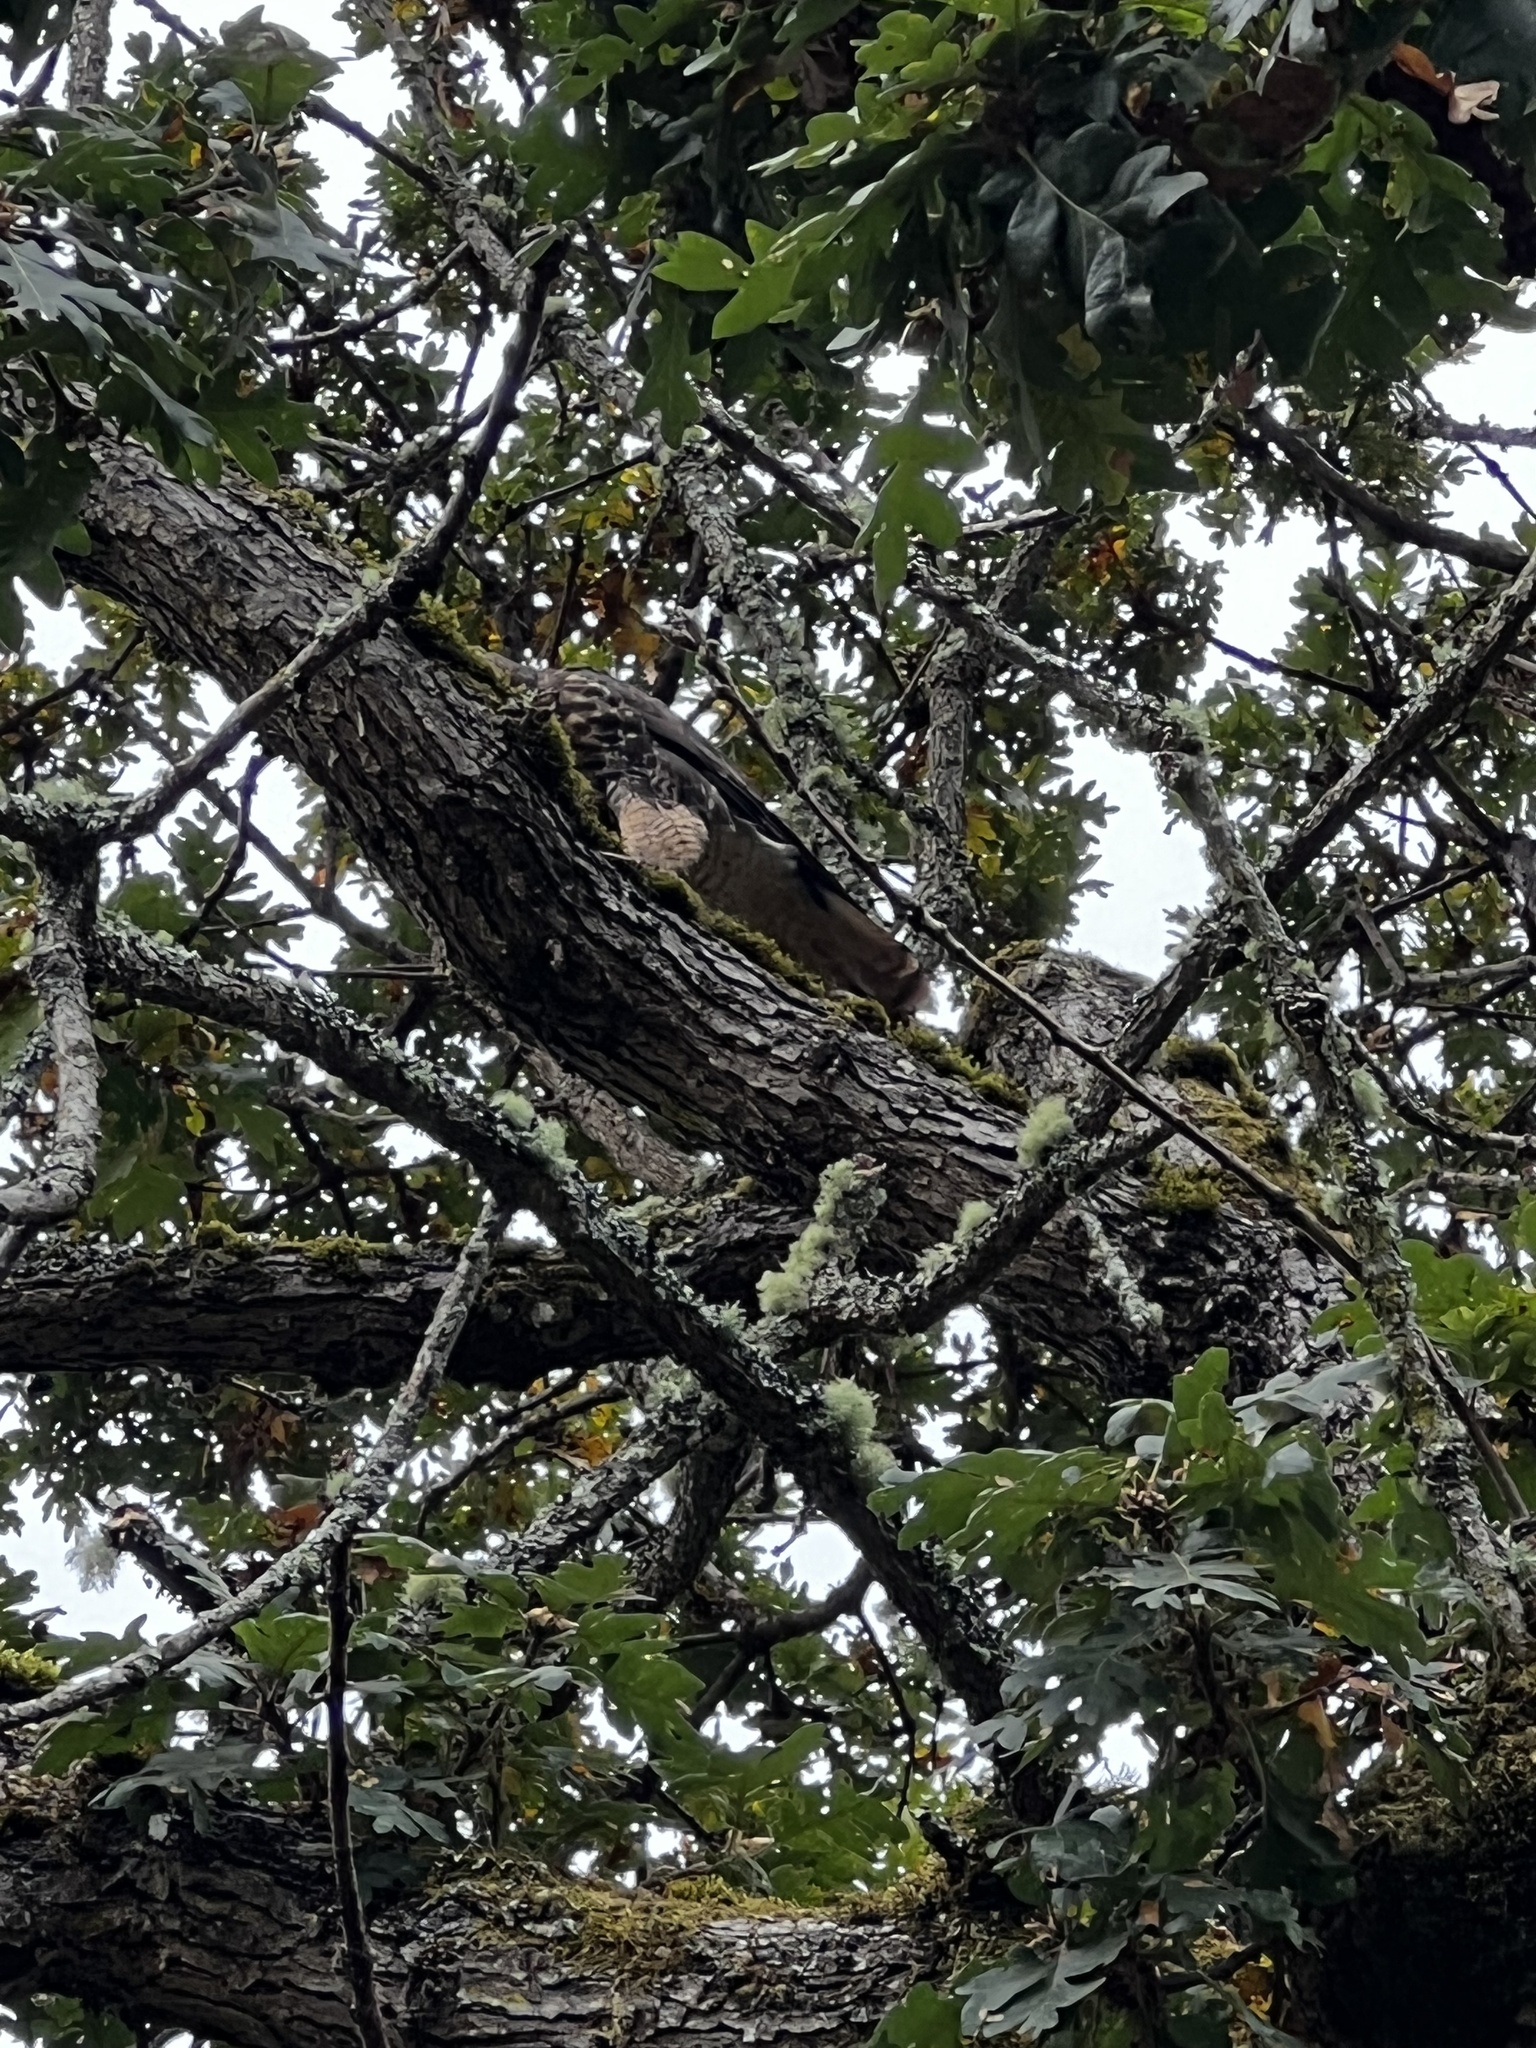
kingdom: Animalia
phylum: Chordata
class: Aves
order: Accipitriformes
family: Accipitridae
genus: Buteo
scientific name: Buteo jamaicensis
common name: Red-tailed hawk
